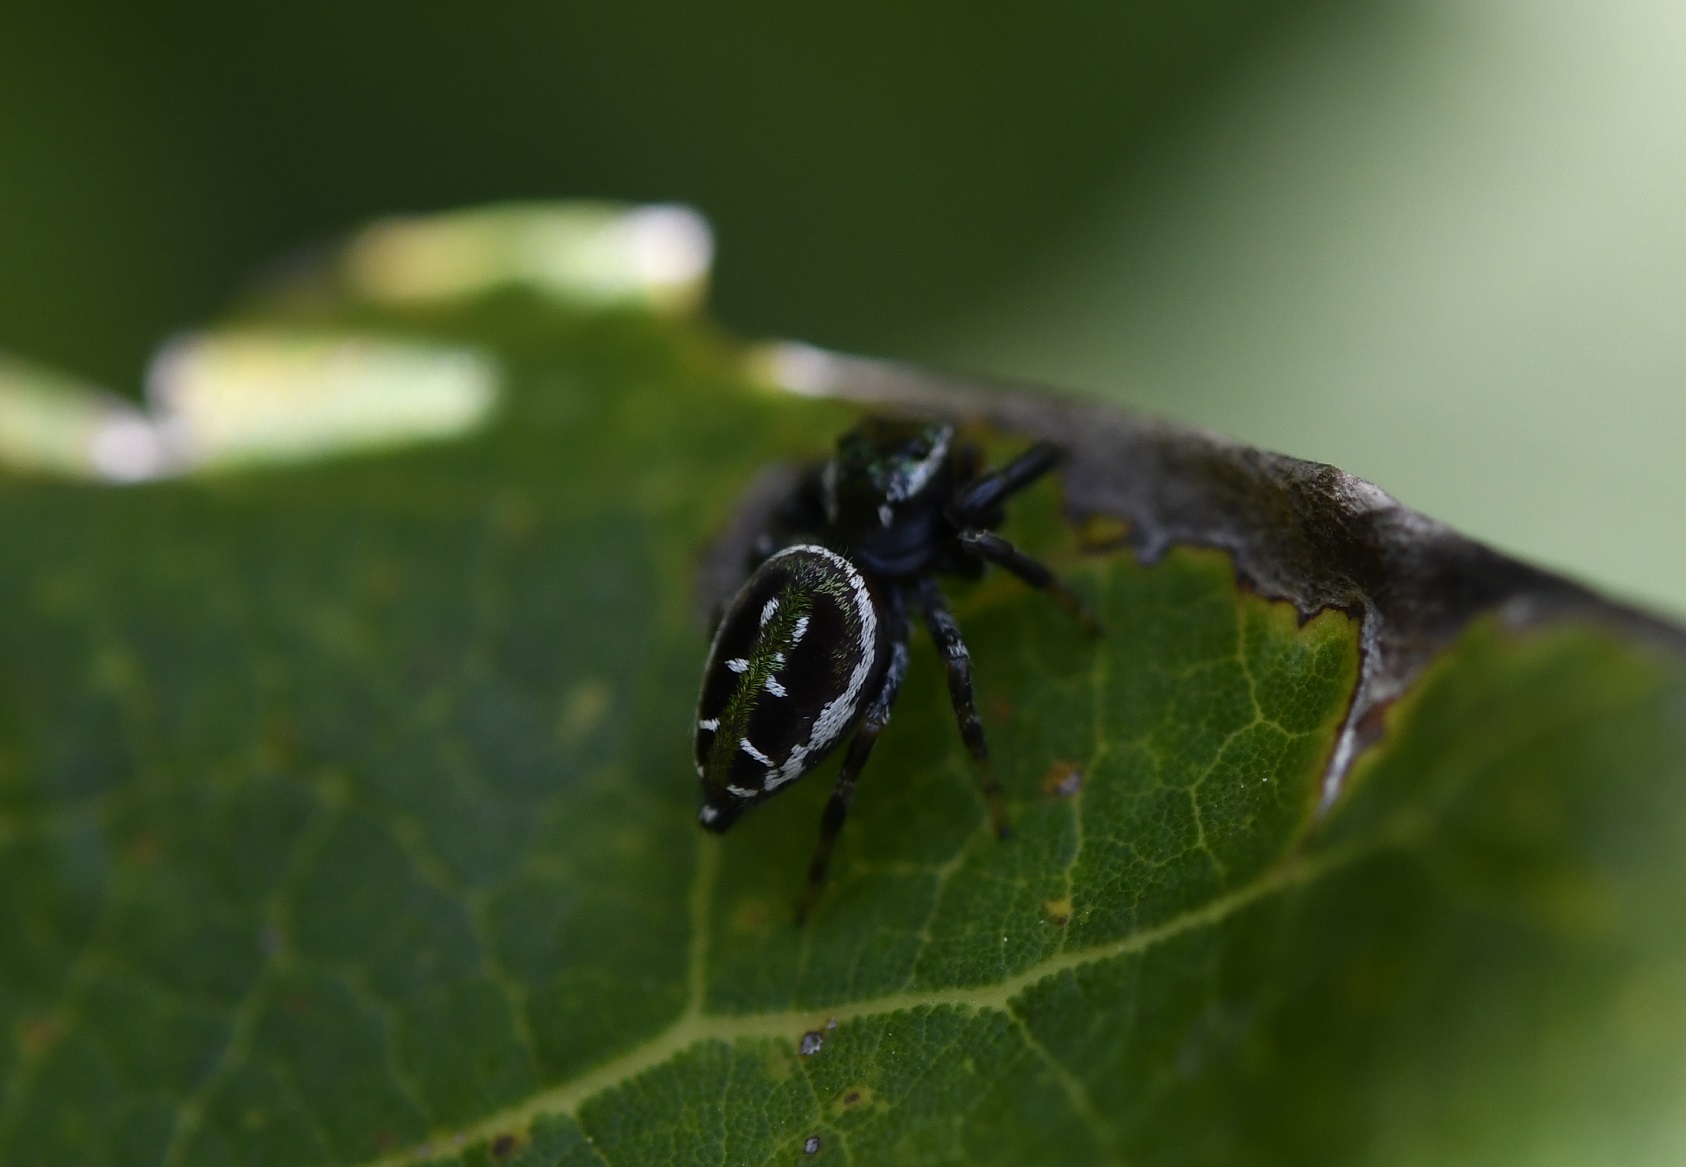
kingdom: Animalia
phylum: Arthropoda
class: Arachnida
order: Araneae
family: Salticidae
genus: Paraphidippus
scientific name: Paraphidippus aurantius
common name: Jumping spiders
